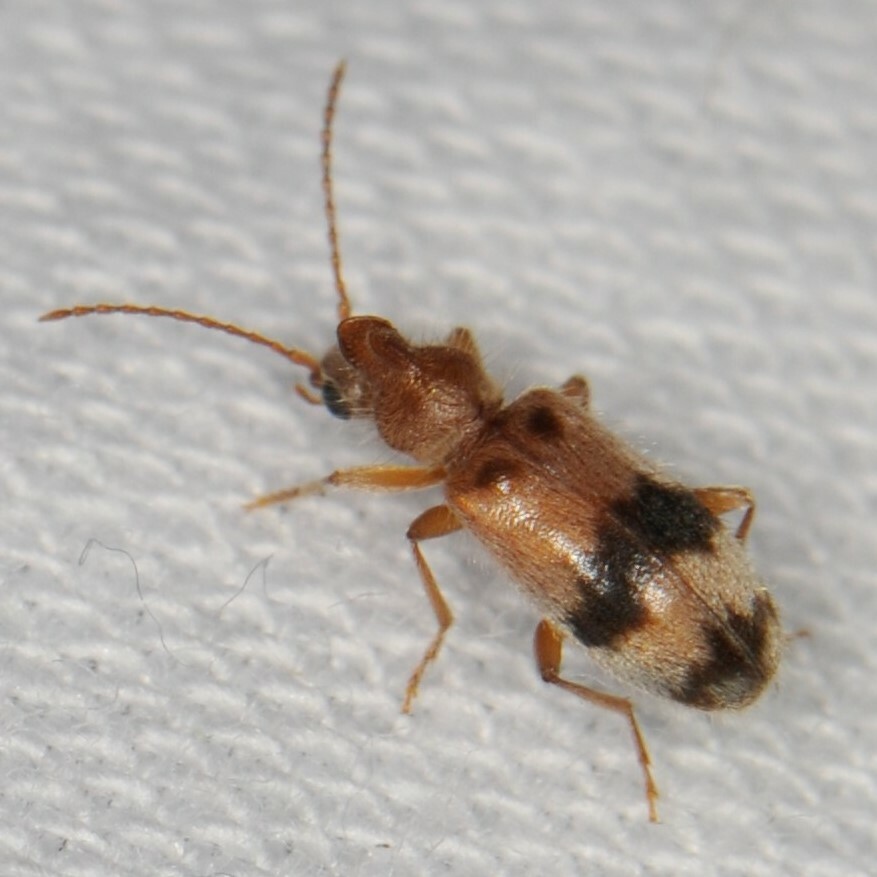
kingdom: Animalia
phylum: Arthropoda
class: Insecta
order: Coleoptera
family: Anthicidae
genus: Notoxus
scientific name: Notoxus
